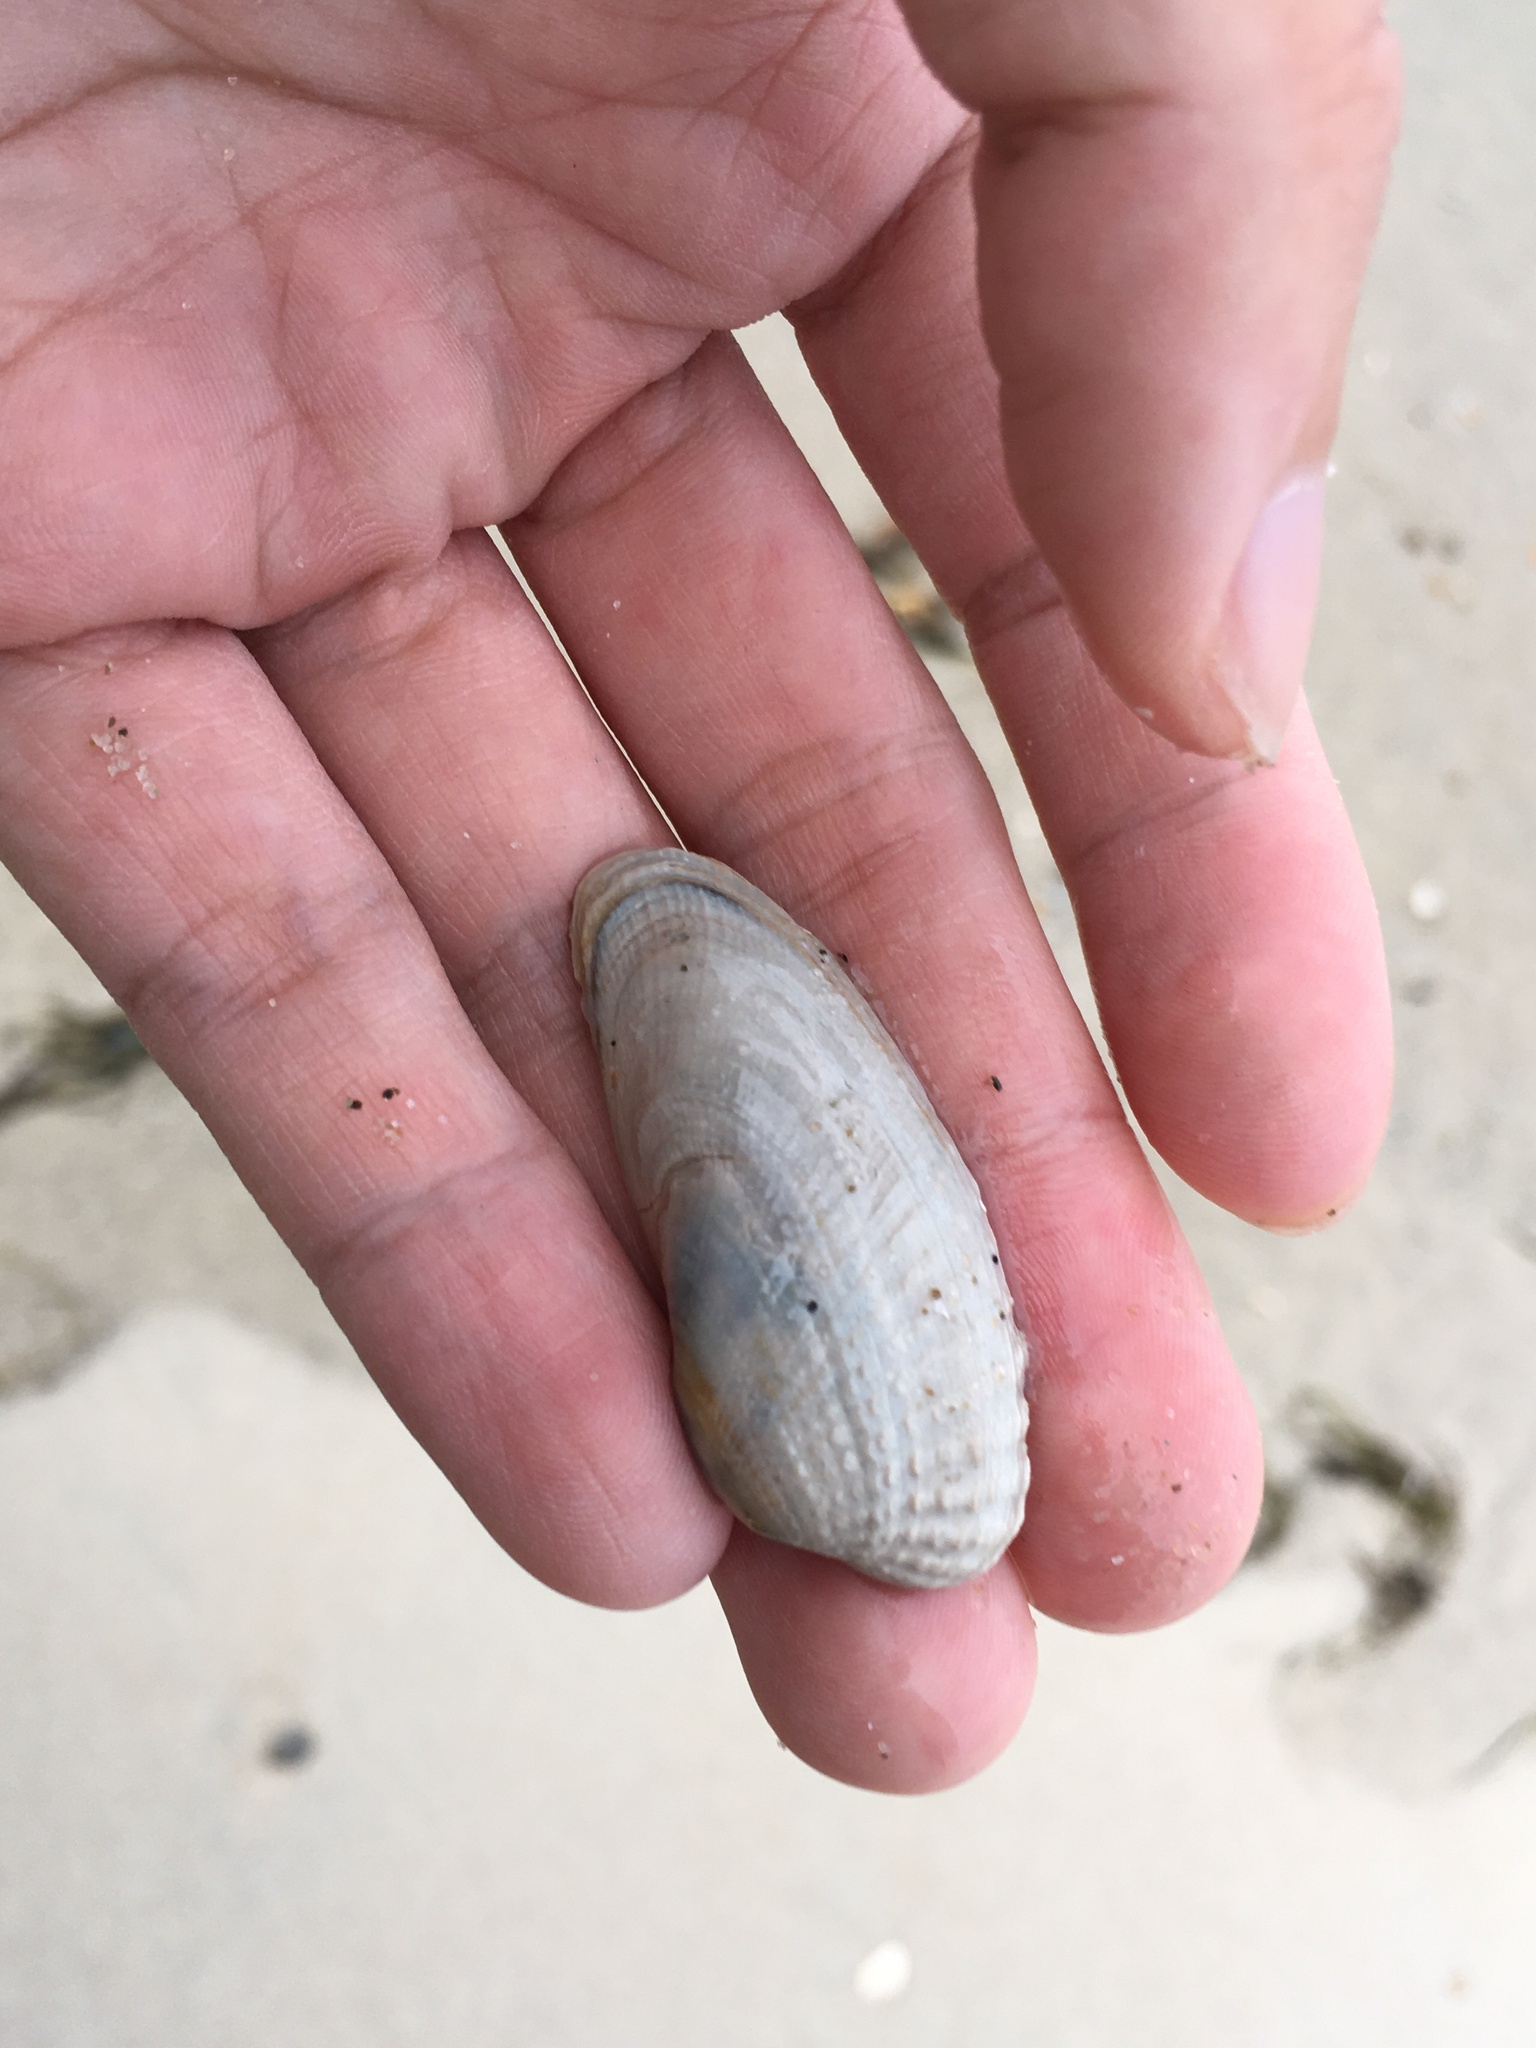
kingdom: Animalia
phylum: Mollusca
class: Bivalvia
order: Venerida
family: Veneridae
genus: Petricolaria
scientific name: Petricolaria pholadiformis
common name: American piddock
